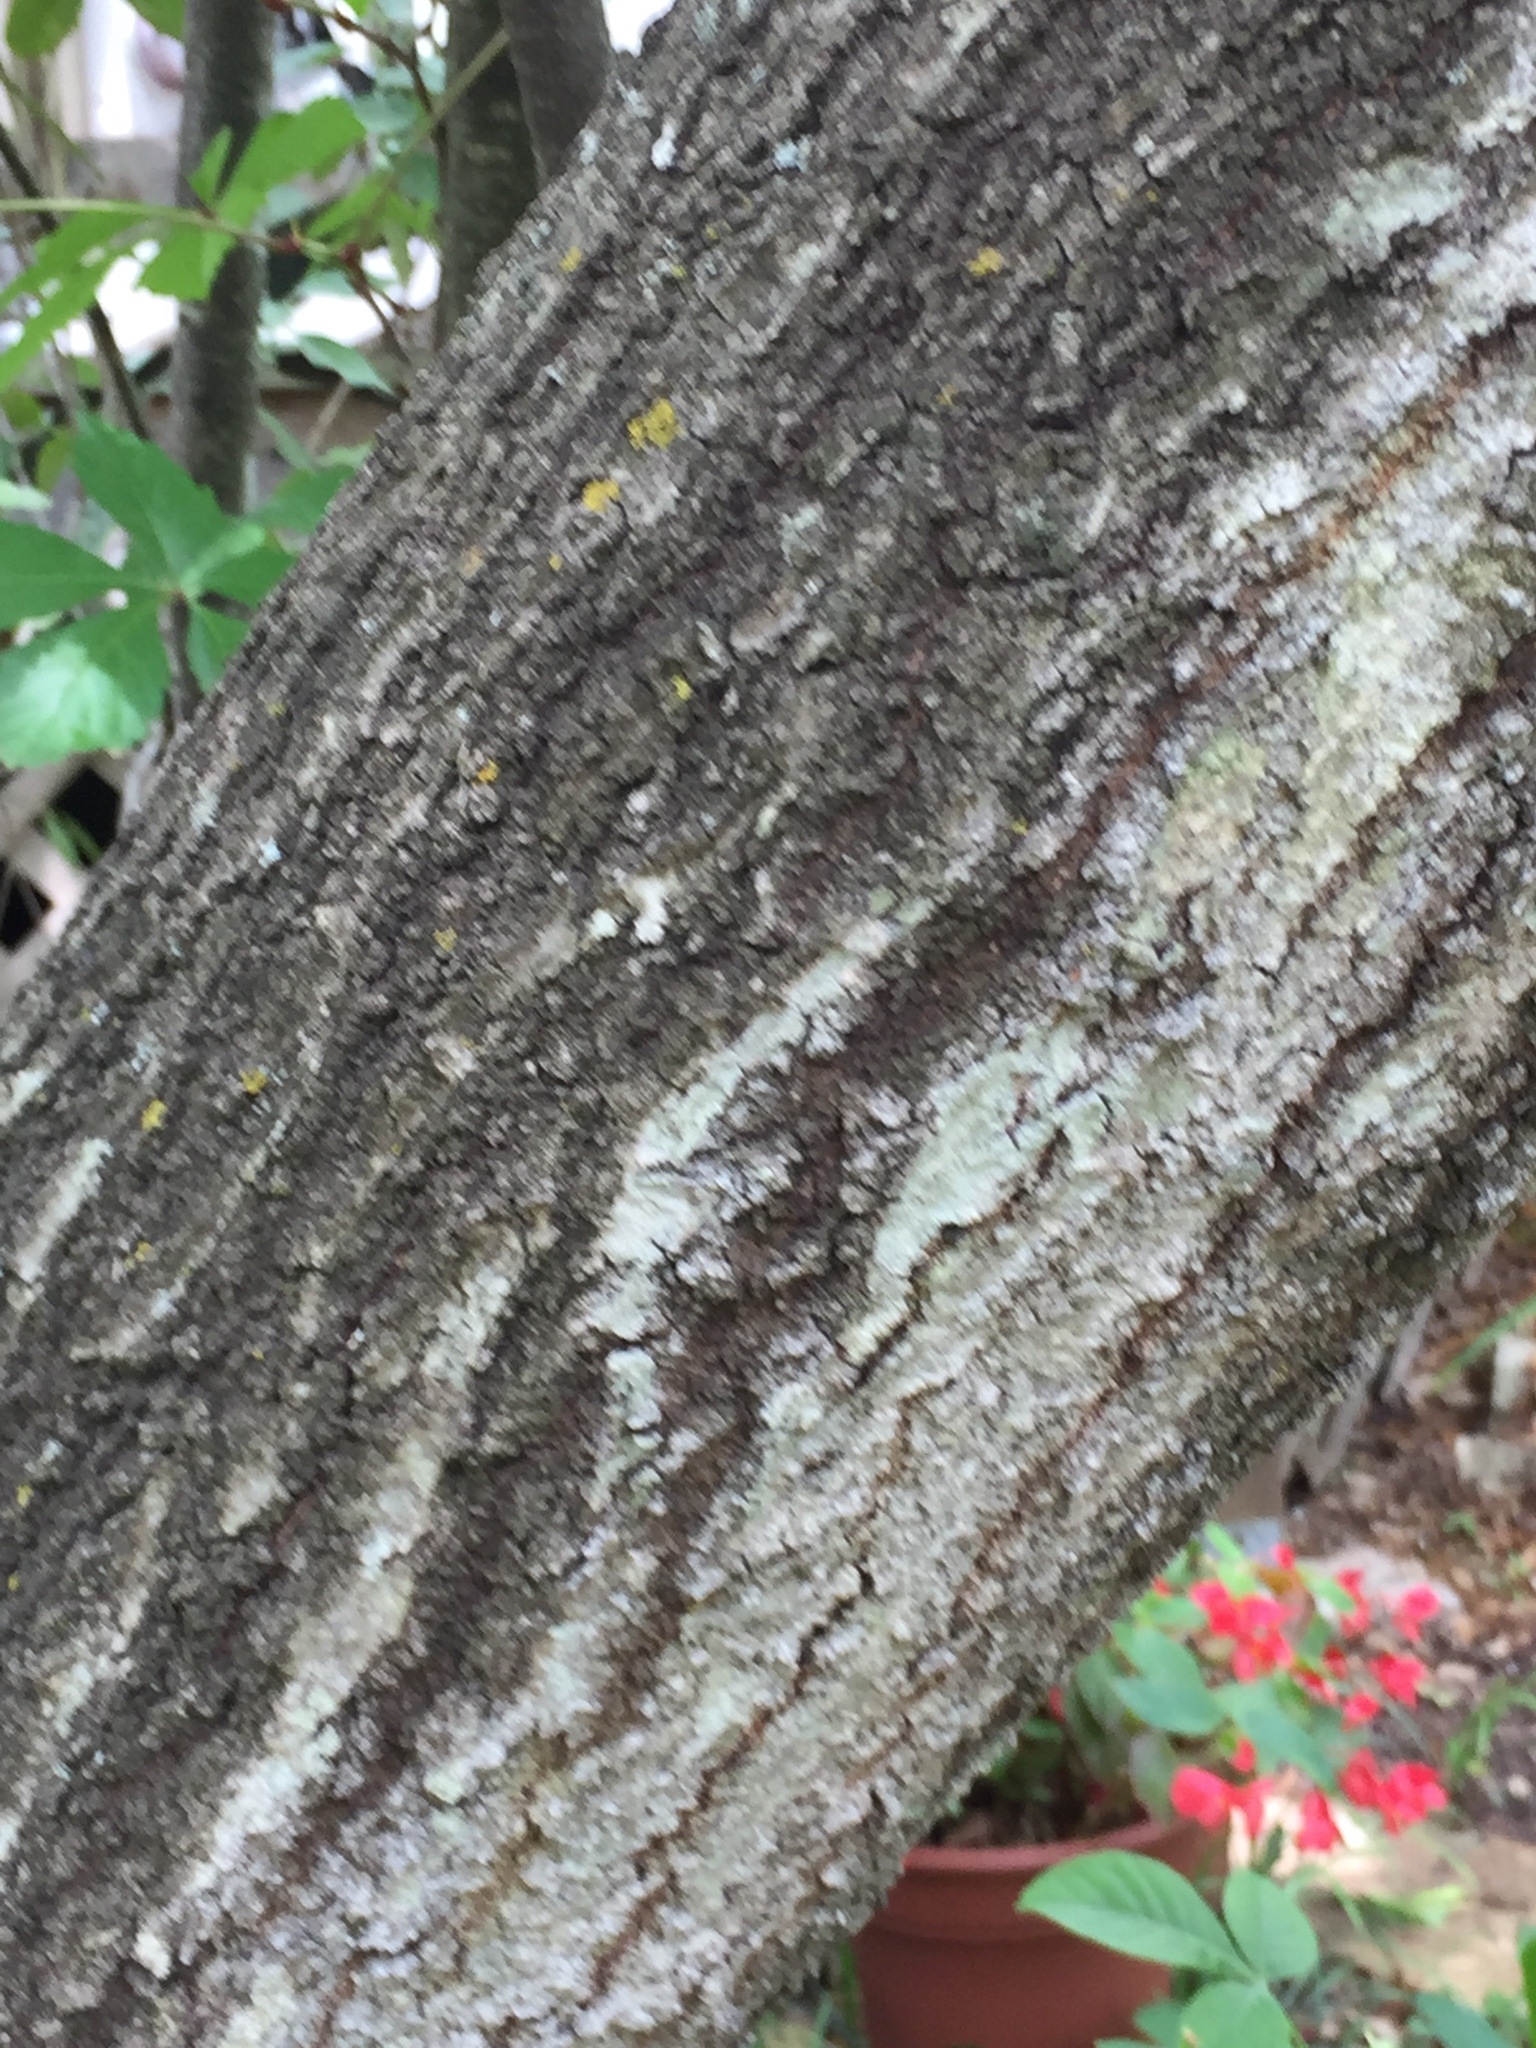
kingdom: Plantae
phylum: Tracheophyta
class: Magnoliopsida
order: Fagales
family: Fagaceae
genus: Quercus
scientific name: Quercus buckleyi
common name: Buckley oak
